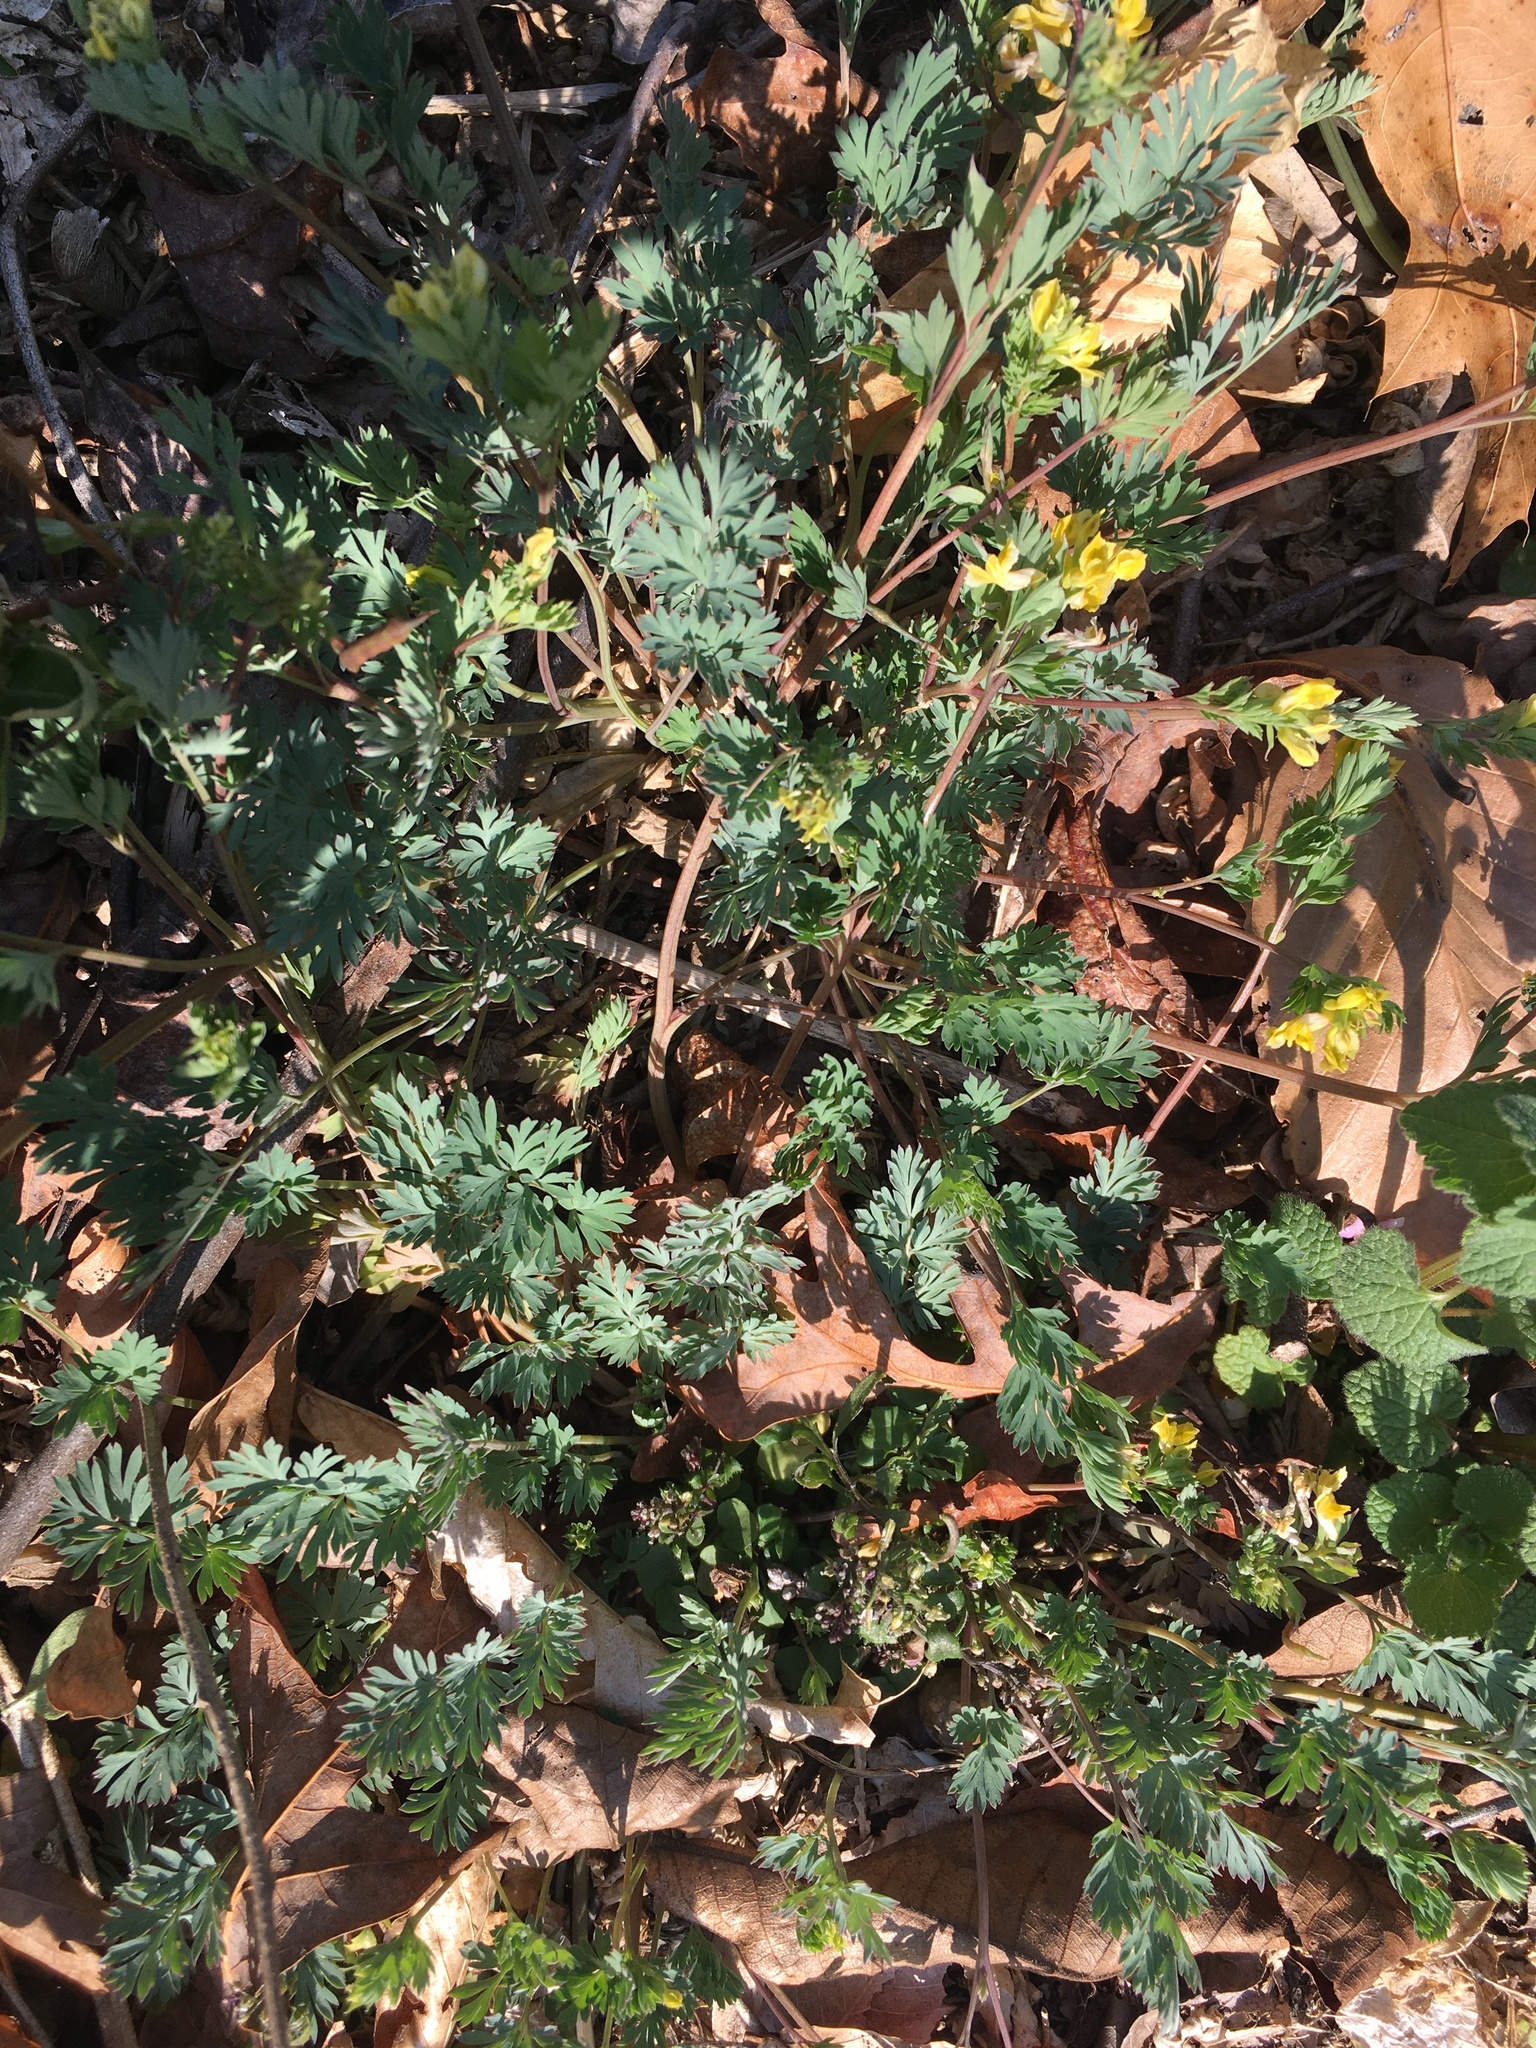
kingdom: Plantae
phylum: Tracheophyta
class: Magnoliopsida
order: Ranunculales
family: Papaveraceae
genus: Corydalis
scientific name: Corydalis flavula
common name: Yellow corydalis
